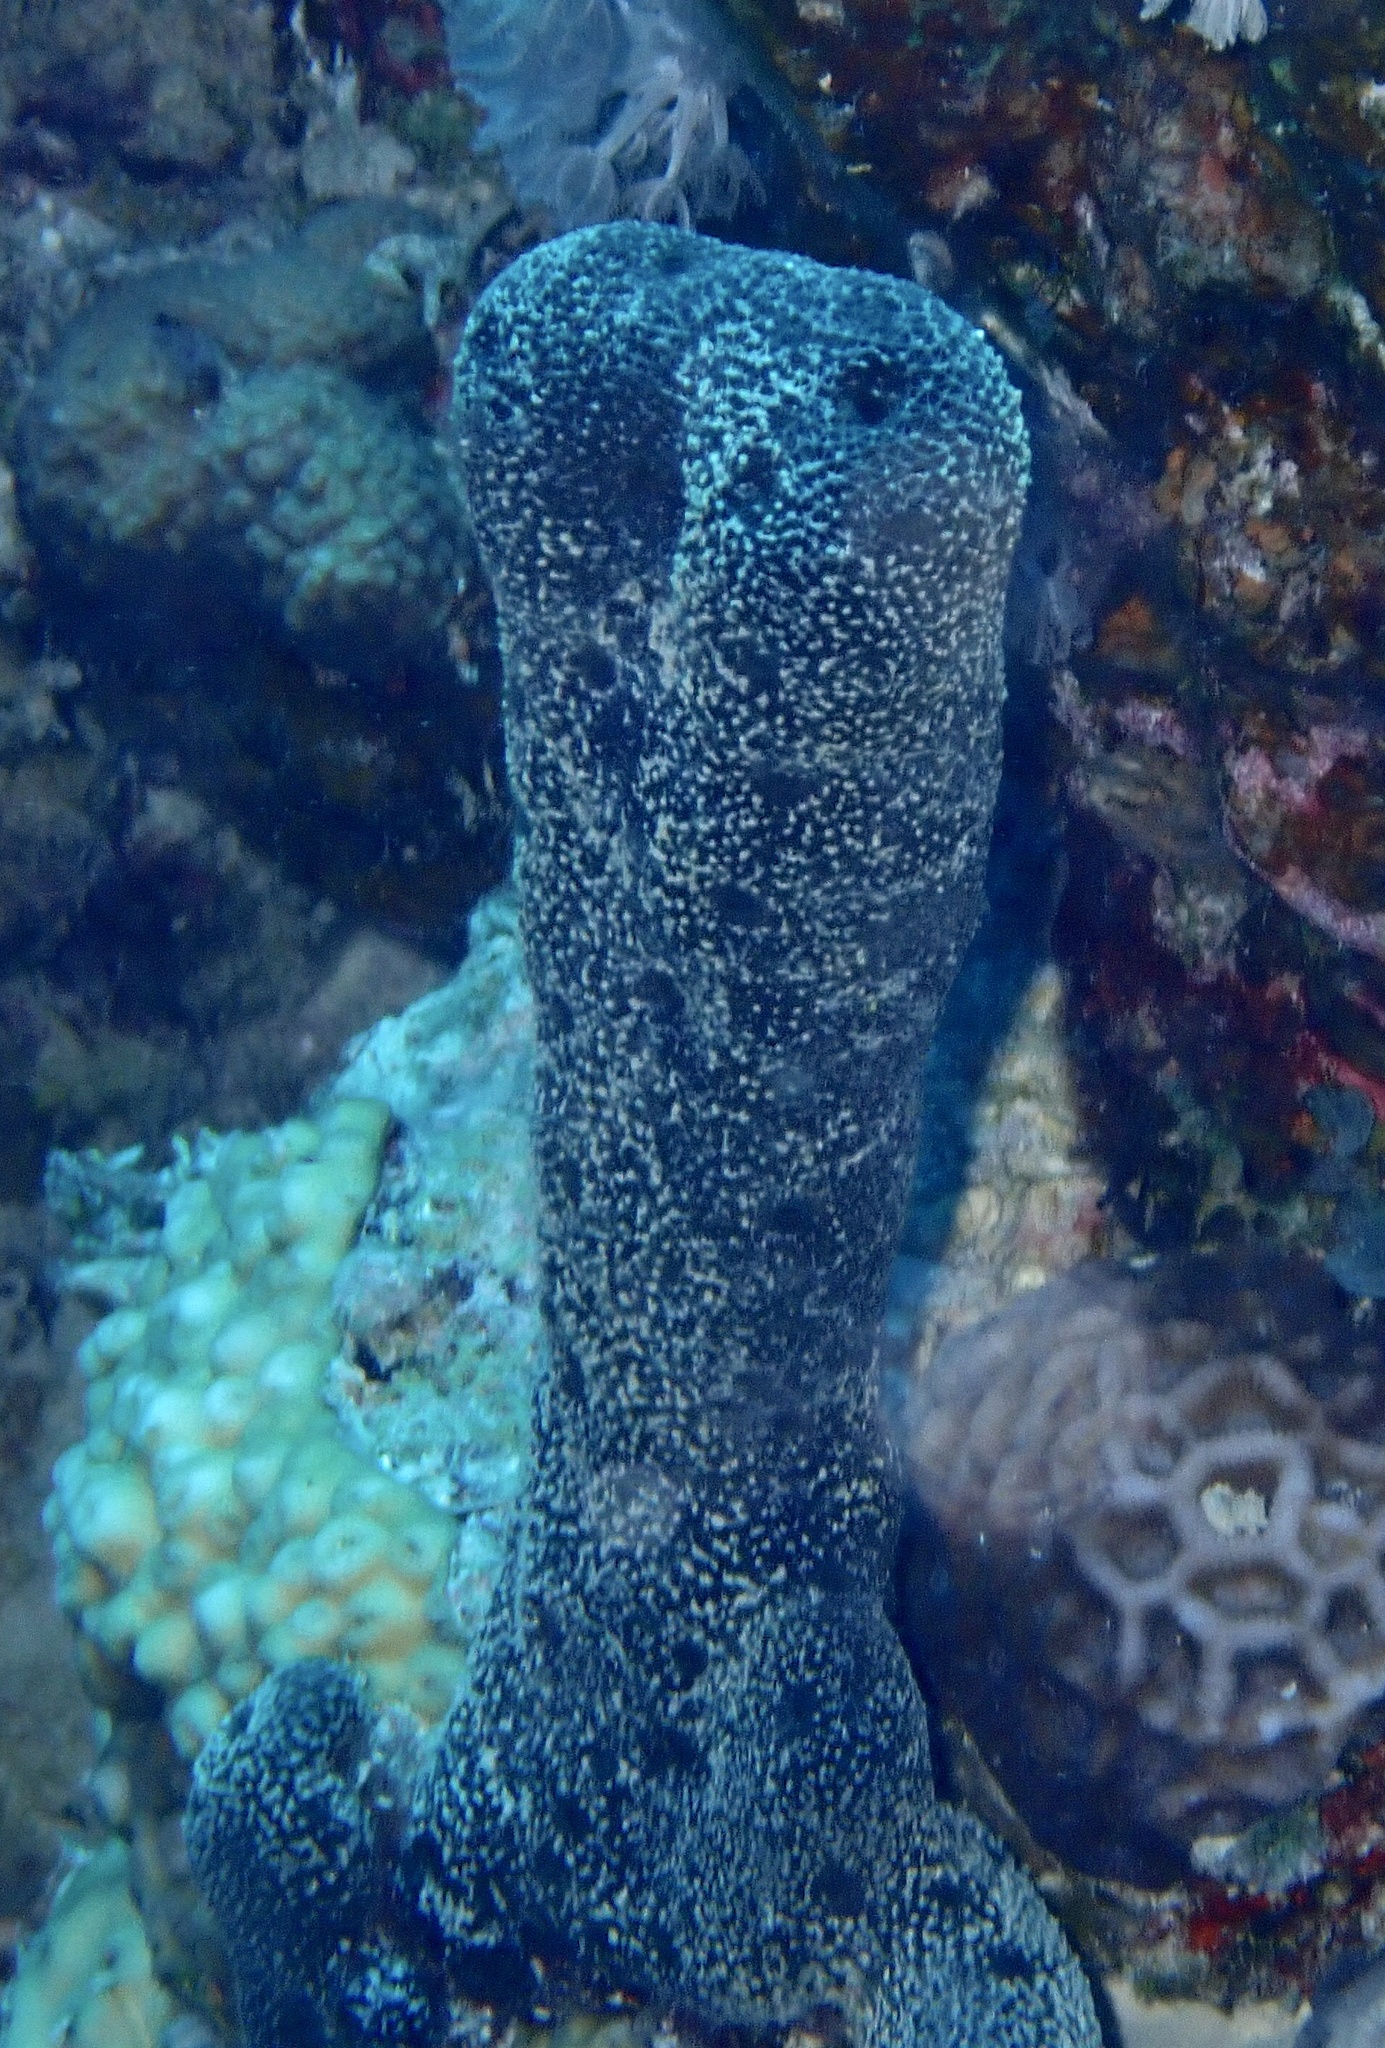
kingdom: Animalia
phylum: Porifera
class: Demospongiae
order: Dictyoceratida
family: Thorectidae
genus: Hyrtios
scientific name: Hyrtios erectus
